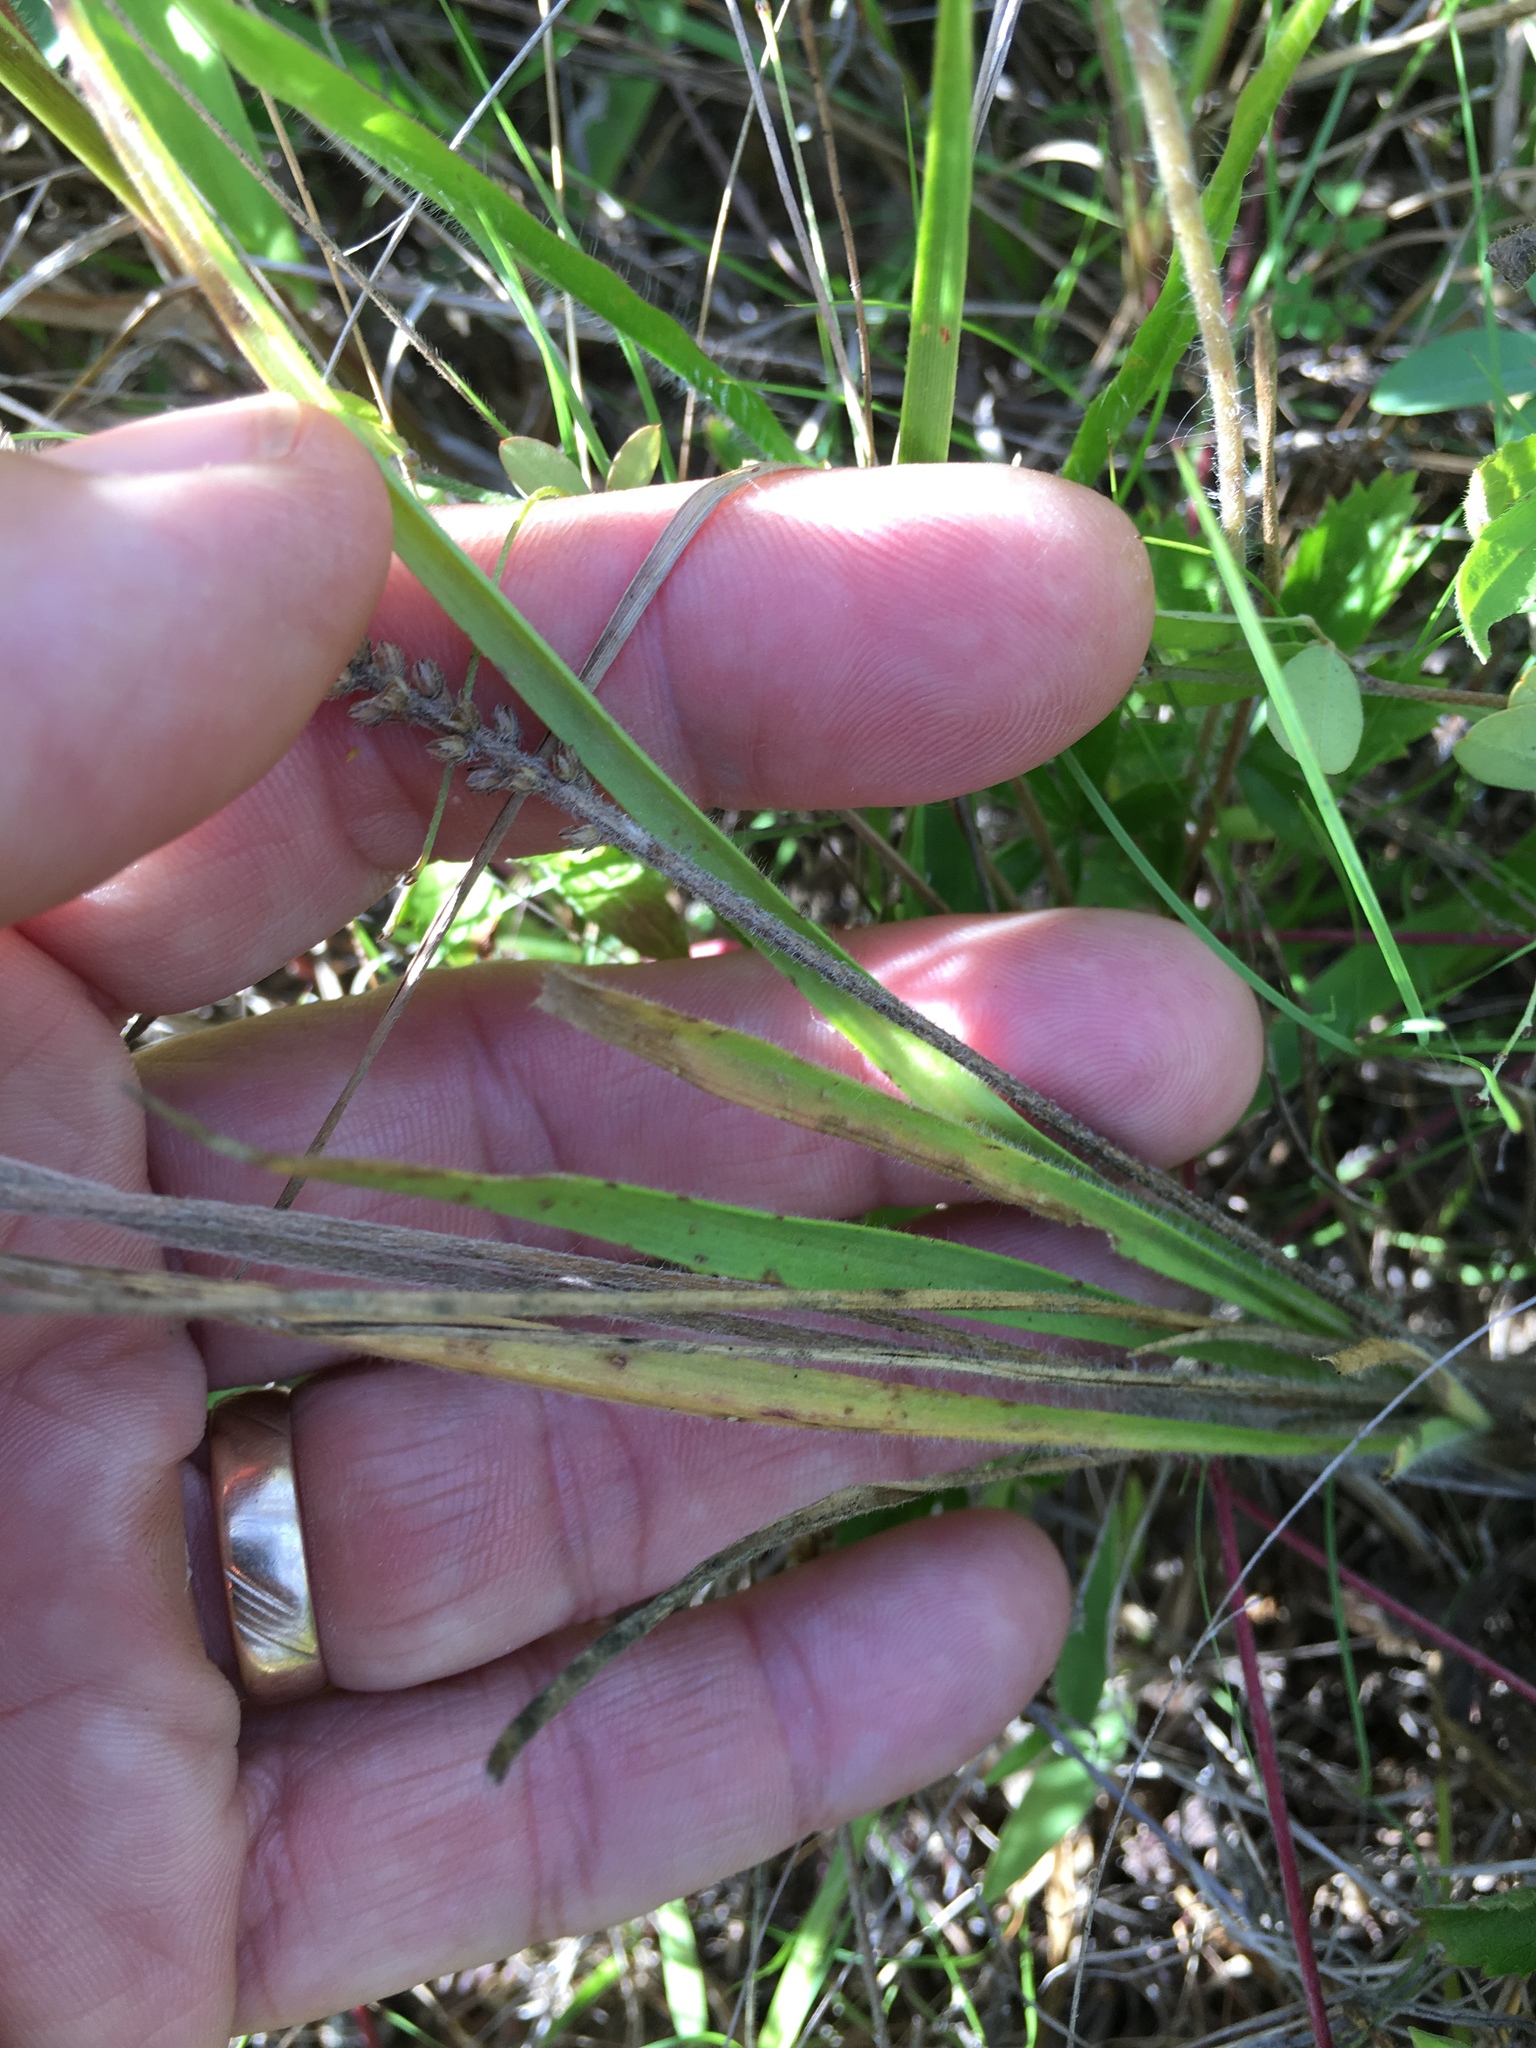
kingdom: Plantae
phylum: Tracheophyta
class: Magnoliopsida
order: Lamiales
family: Plantaginaceae
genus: Plantago
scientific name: Plantago aristata
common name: Bracted plantain
